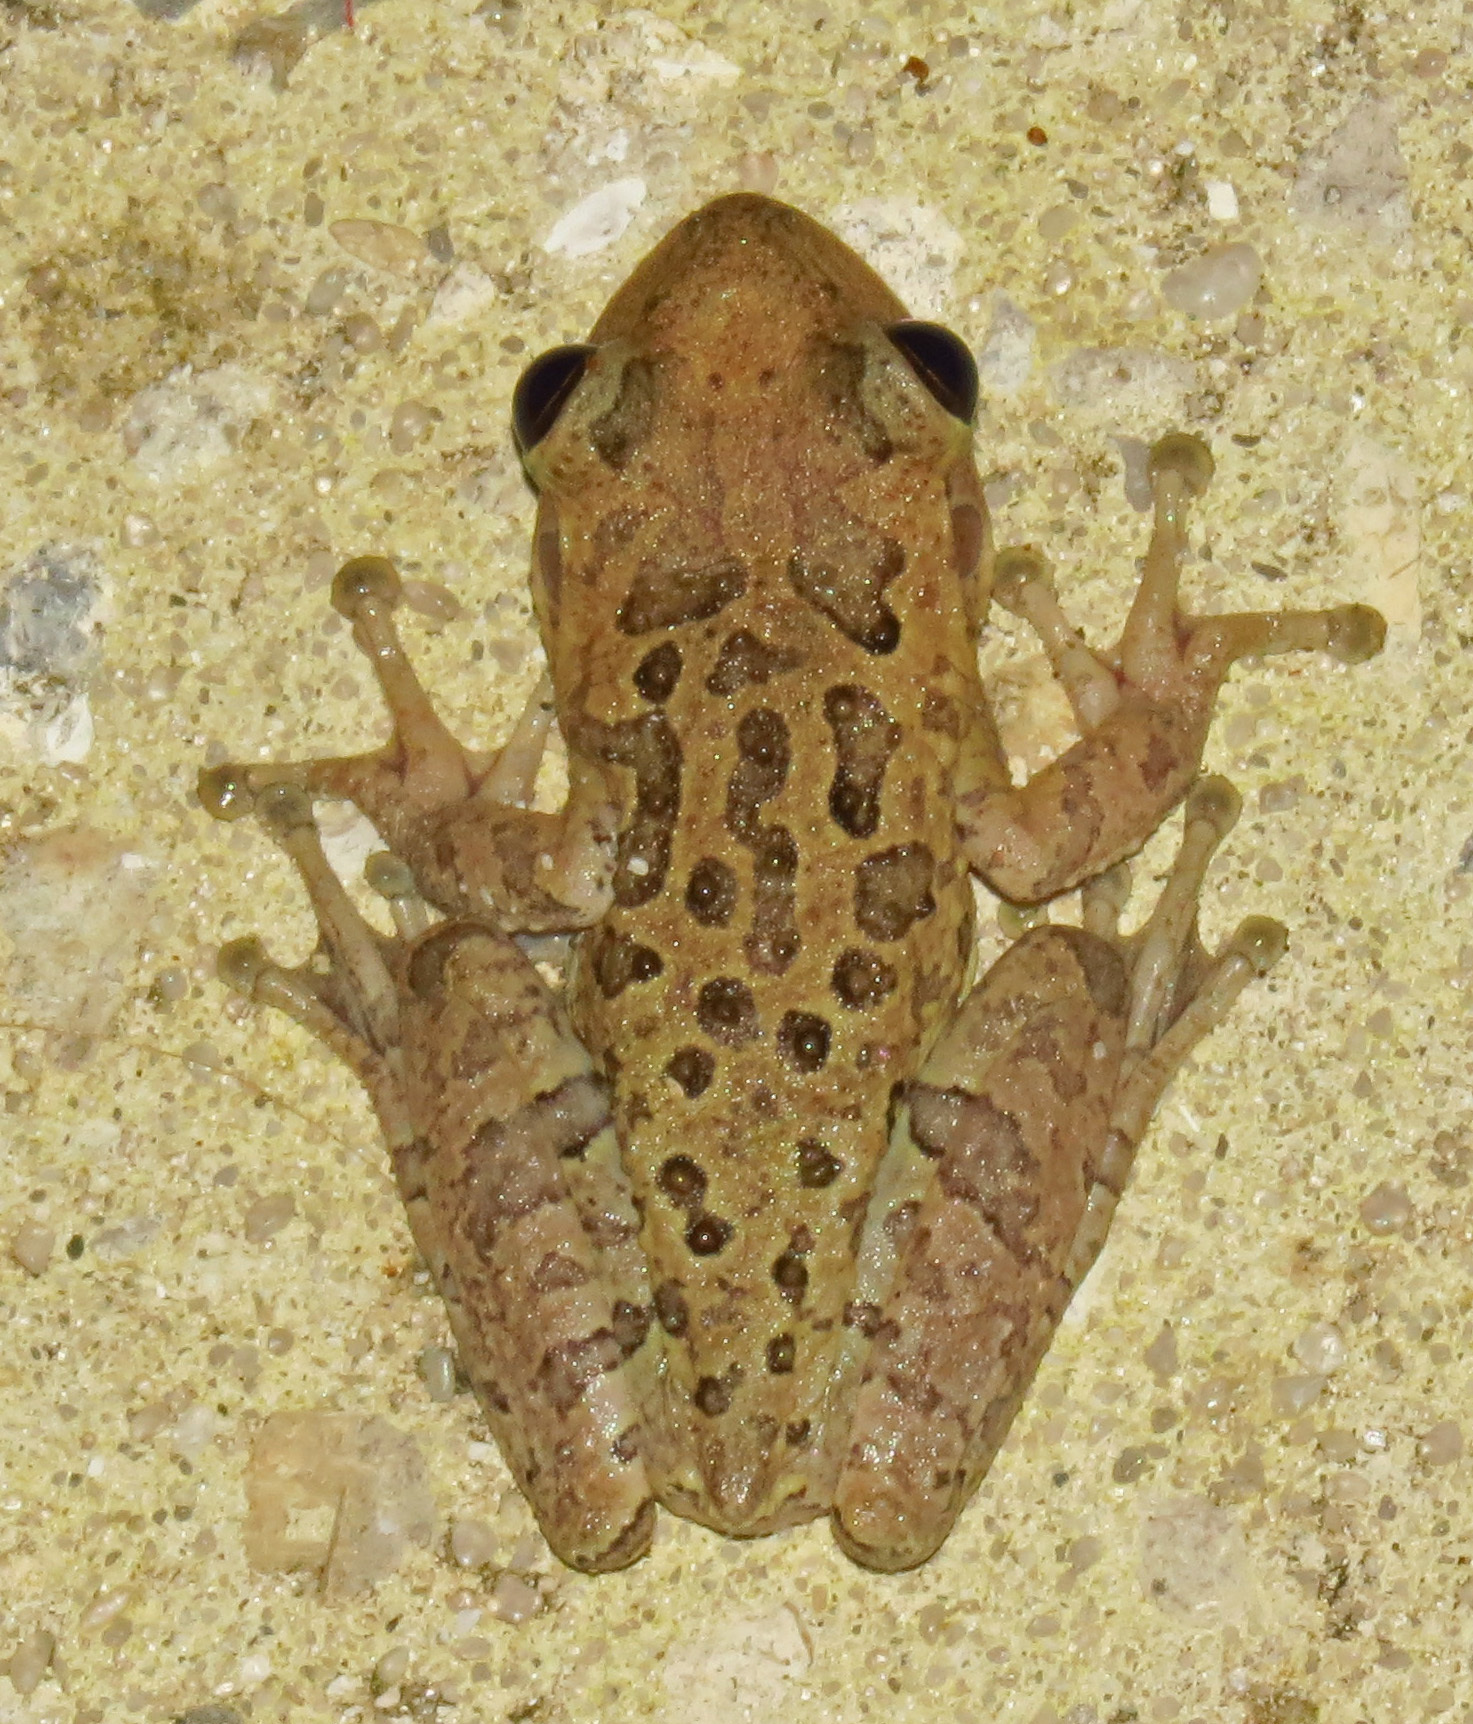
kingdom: Animalia
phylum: Chordata
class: Amphibia
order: Anura
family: Hylidae
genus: Osteopilus
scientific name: Osteopilus septentrionalis
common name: Cuban treefrog
